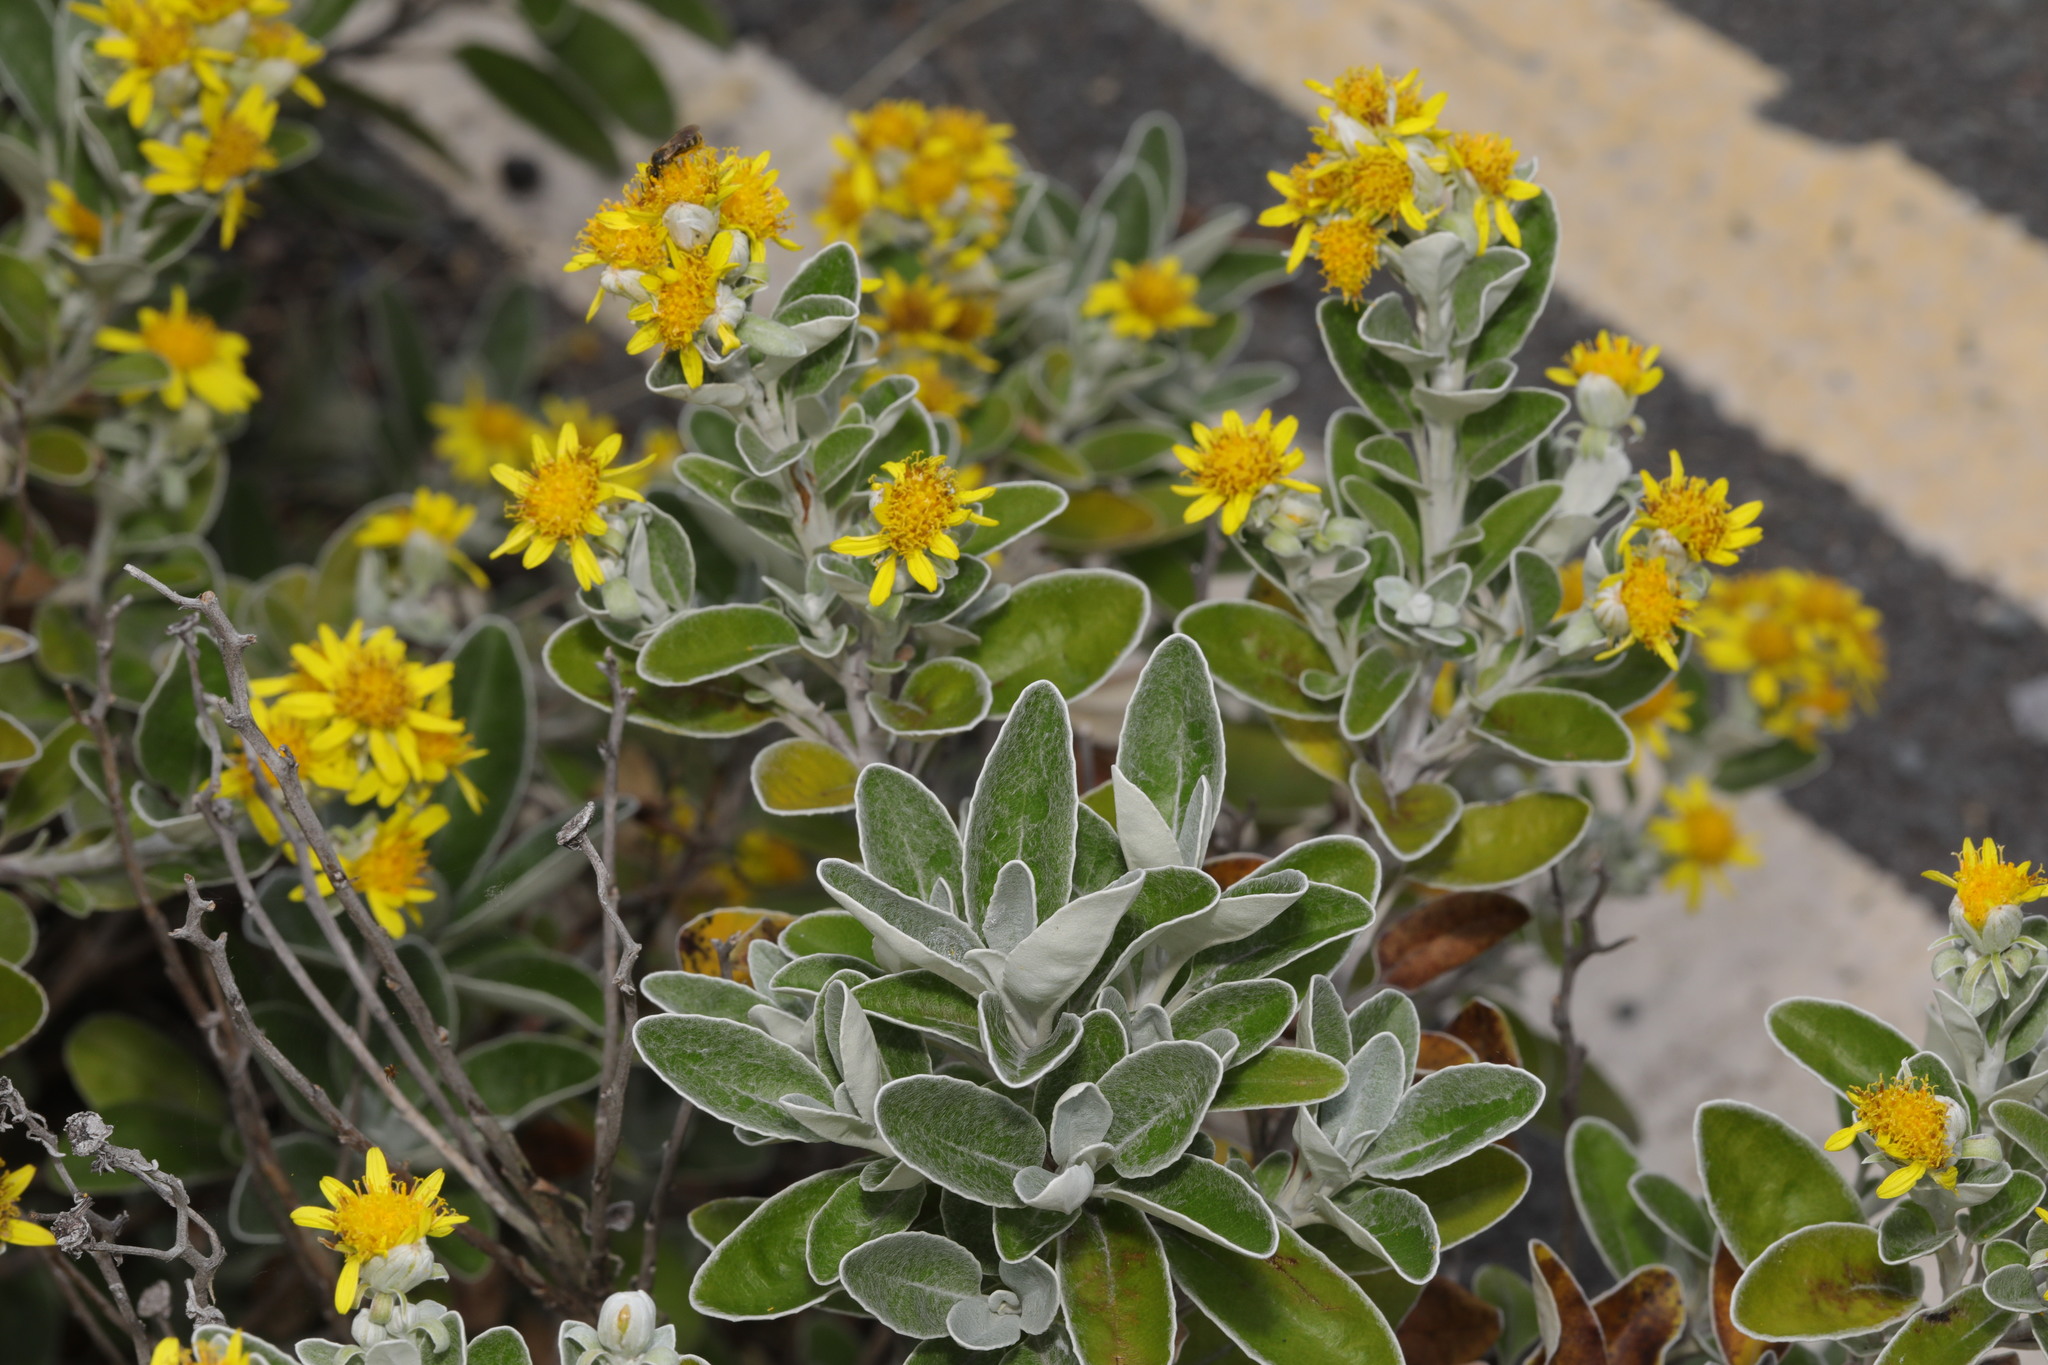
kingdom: Plantae
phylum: Tracheophyta
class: Magnoliopsida
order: Asterales
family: Asteraceae
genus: Brachyglottis
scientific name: Brachyglottis jubar
